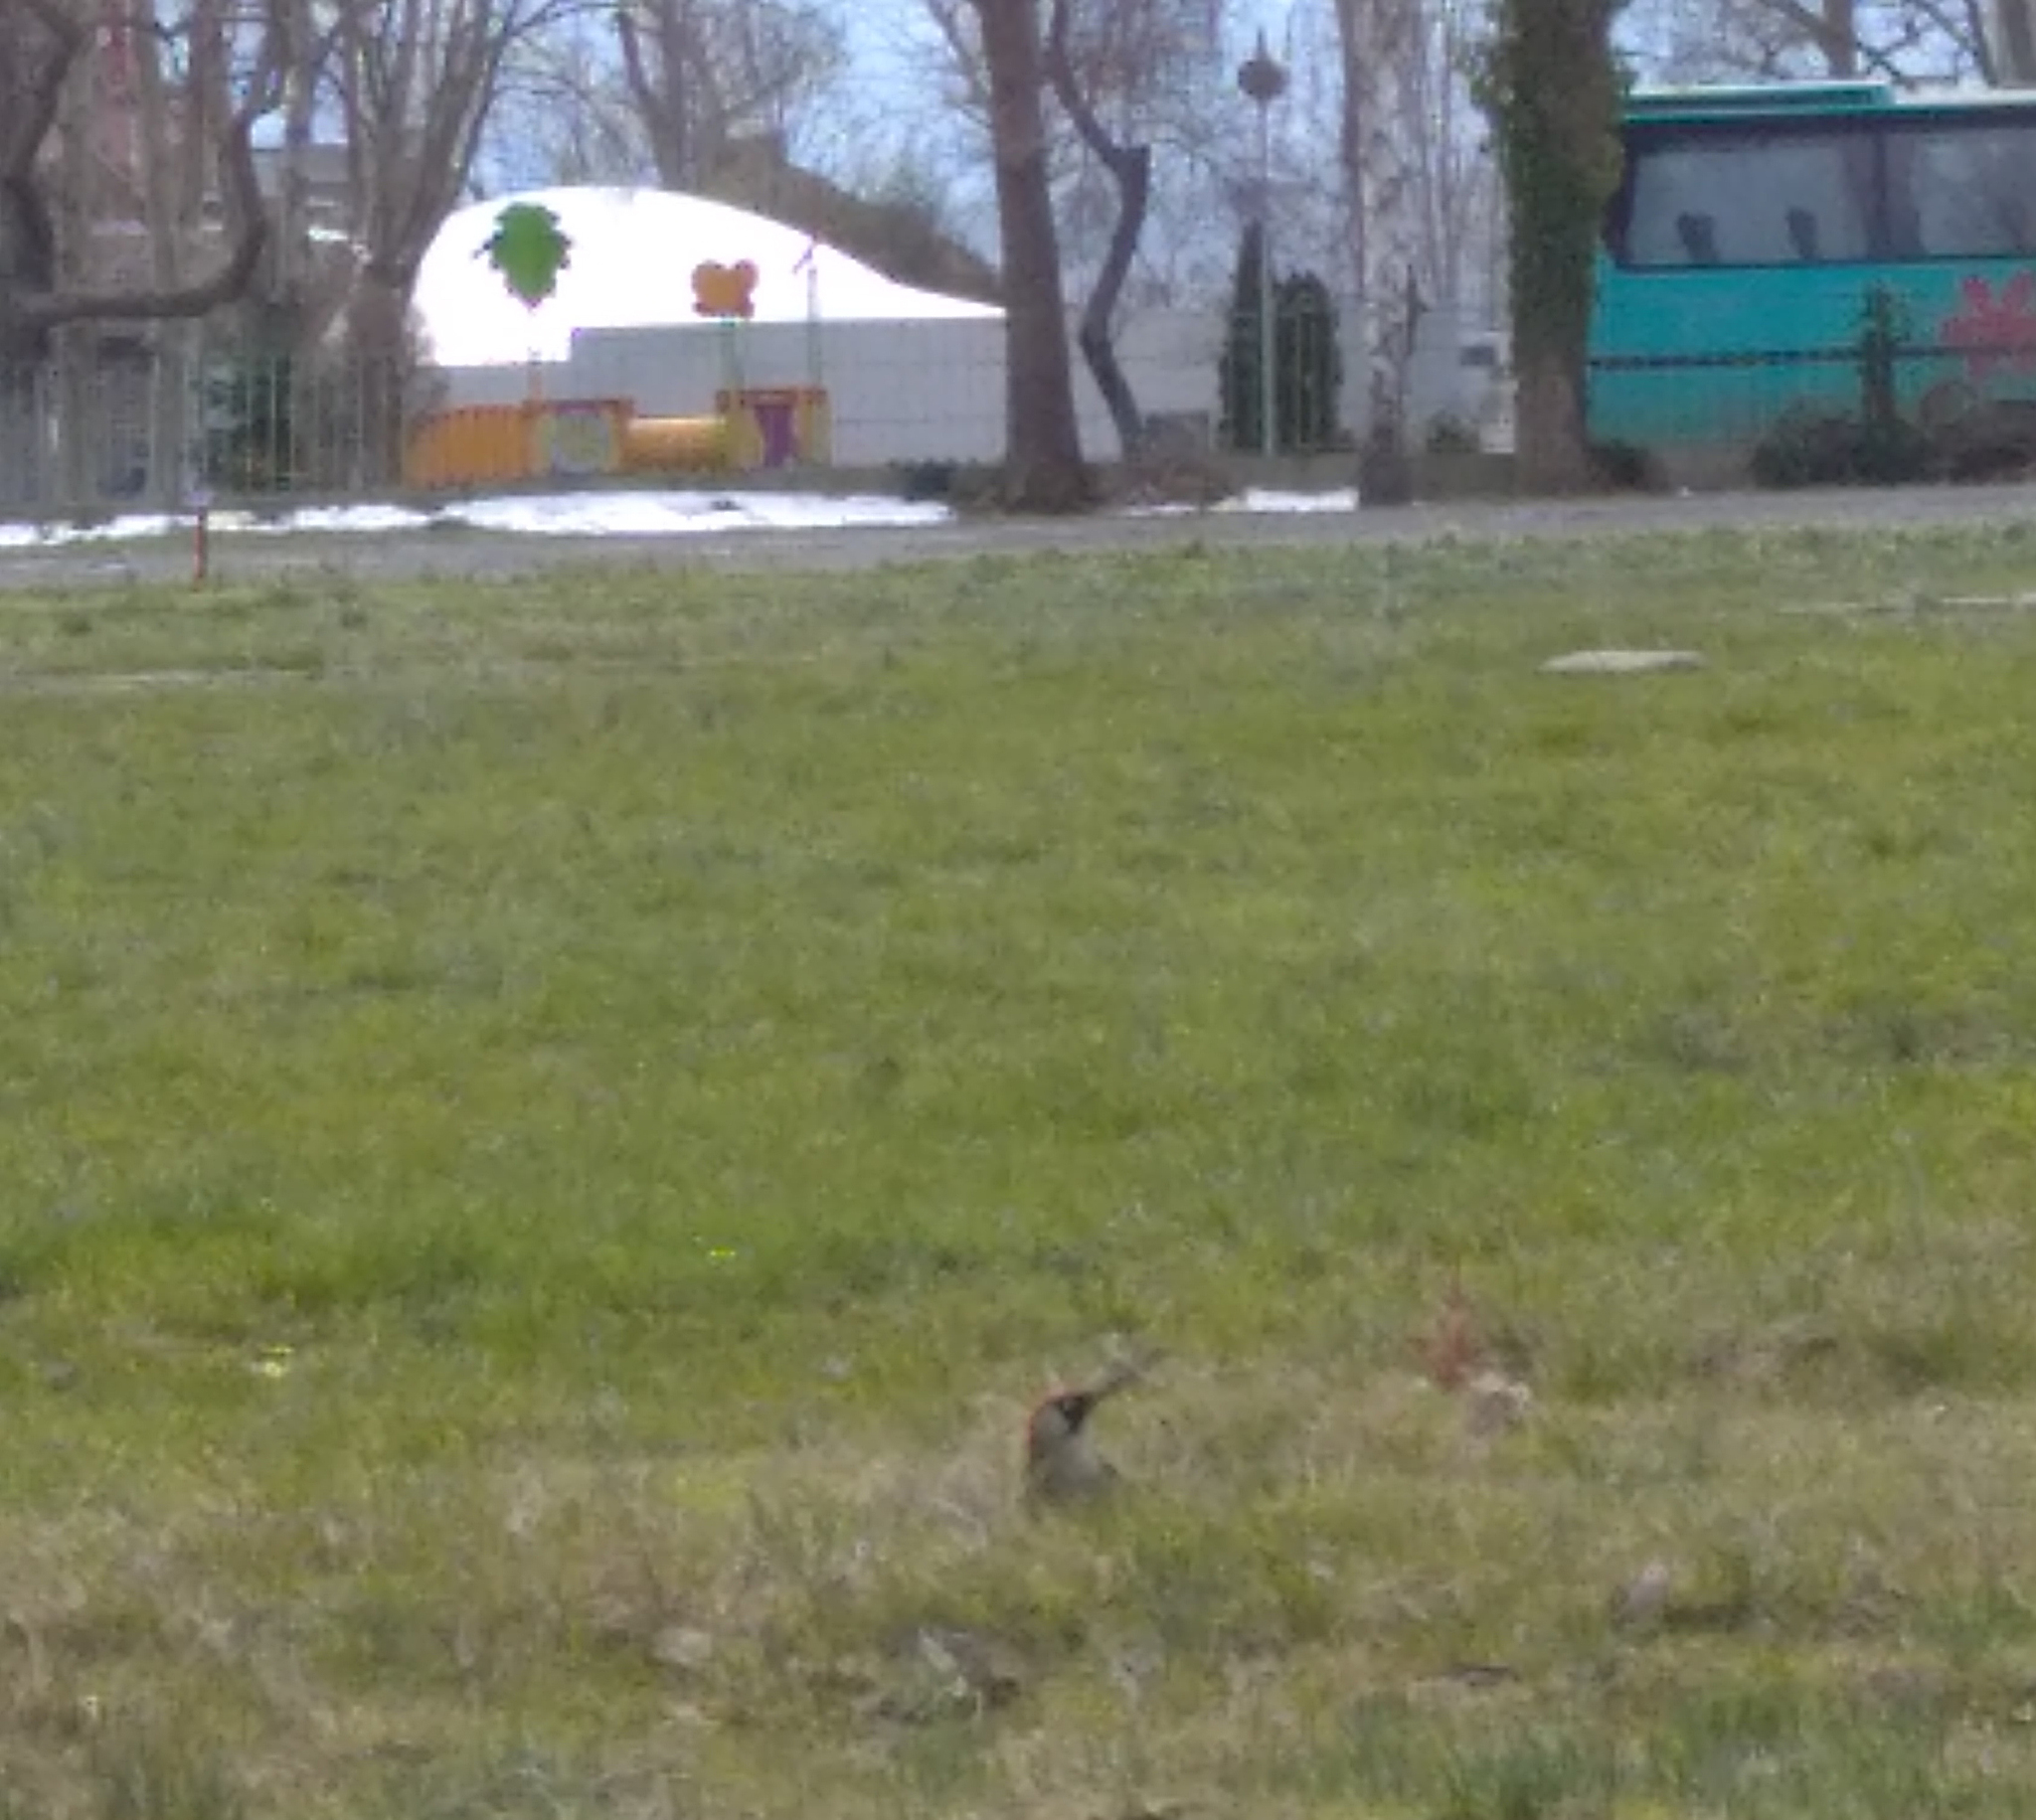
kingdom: Animalia
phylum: Chordata
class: Aves
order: Piciformes
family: Picidae
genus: Picus
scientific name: Picus viridis
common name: European green woodpecker
